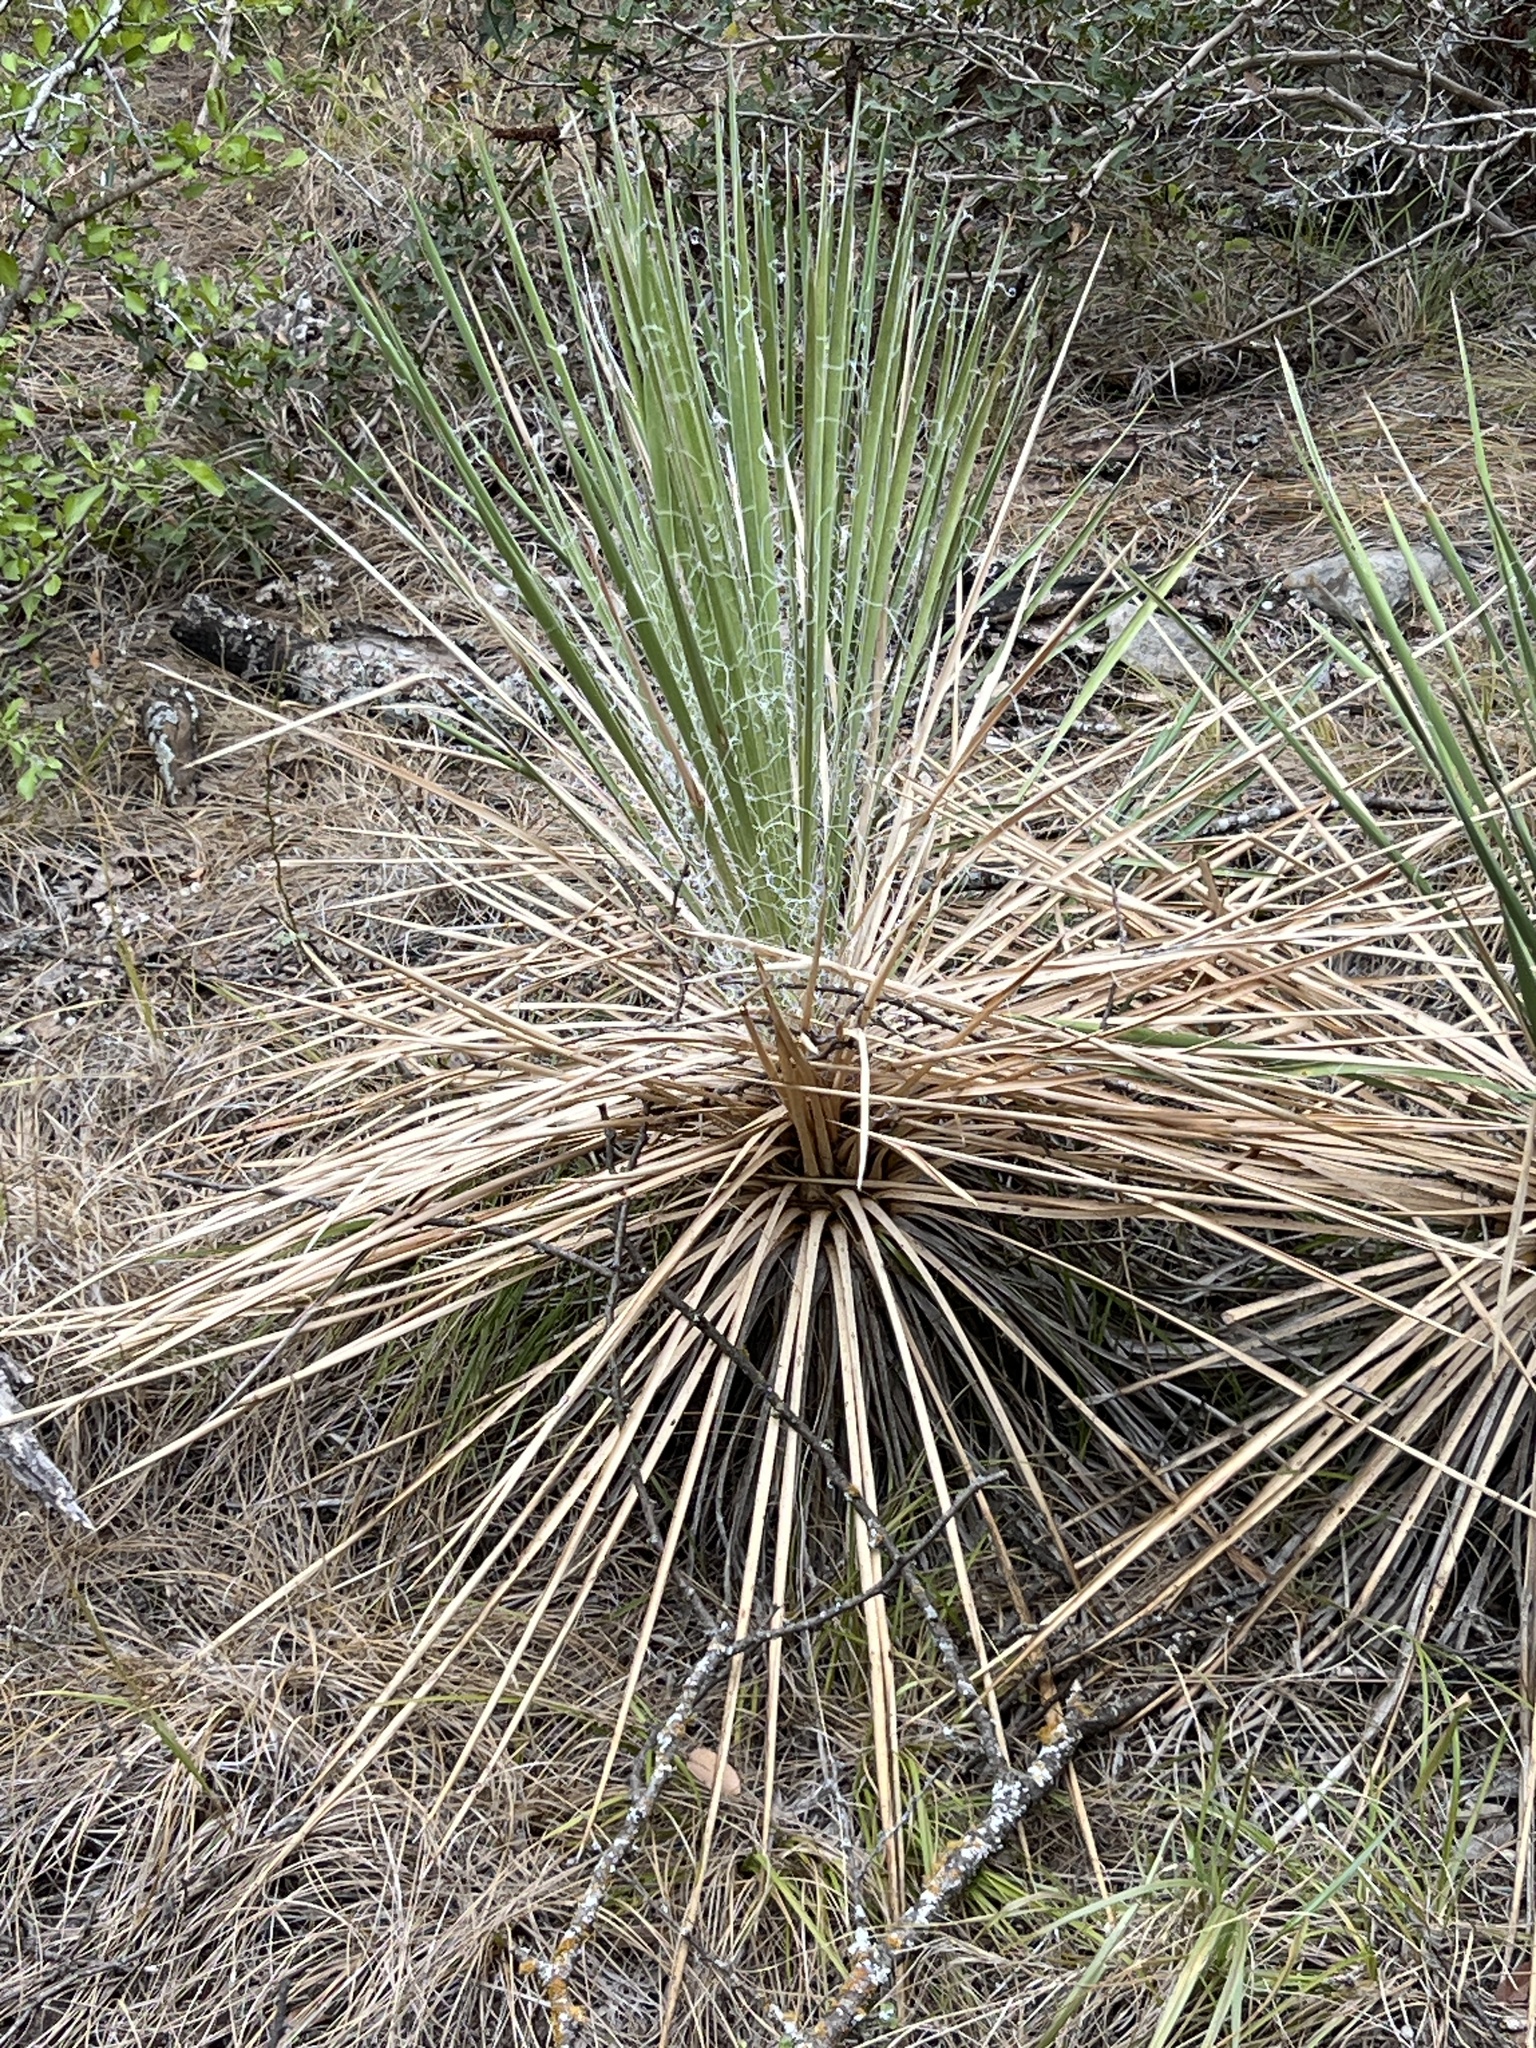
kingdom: Plantae
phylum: Tracheophyta
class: Liliopsida
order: Asparagales
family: Asparagaceae
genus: Yucca
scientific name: Yucca constricta
